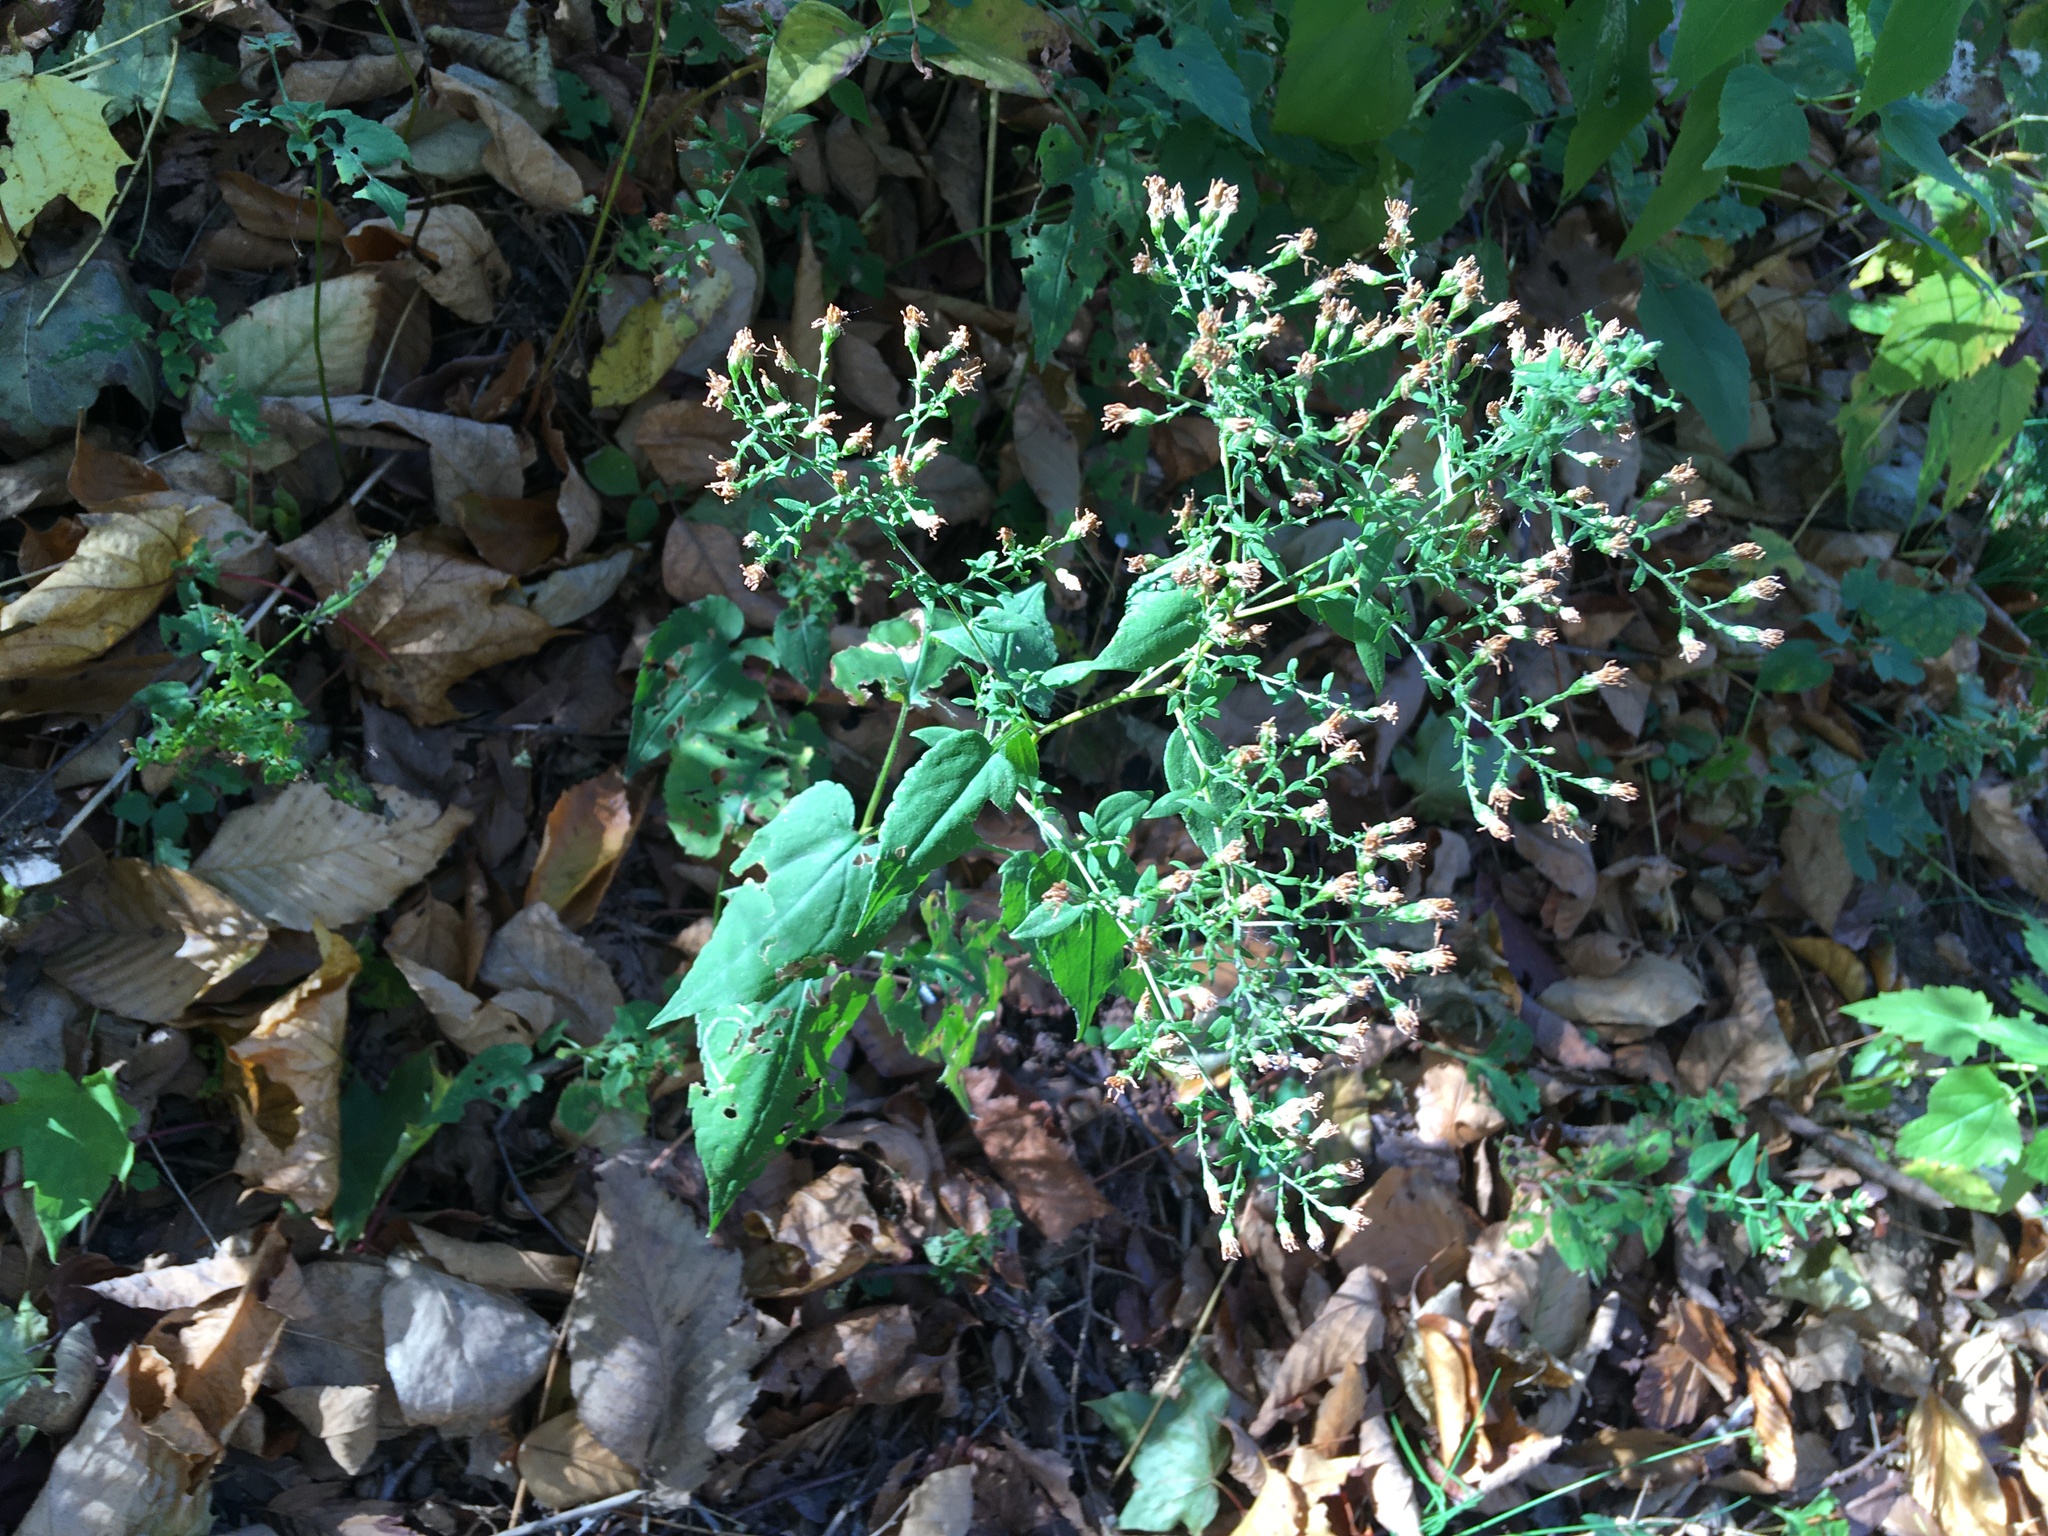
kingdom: Plantae
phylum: Tracheophyta
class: Magnoliopsida
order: Asterales
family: Asteraceae
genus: Symphyotrichum
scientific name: Symphyotrichum cordifolium
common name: Beeweed
